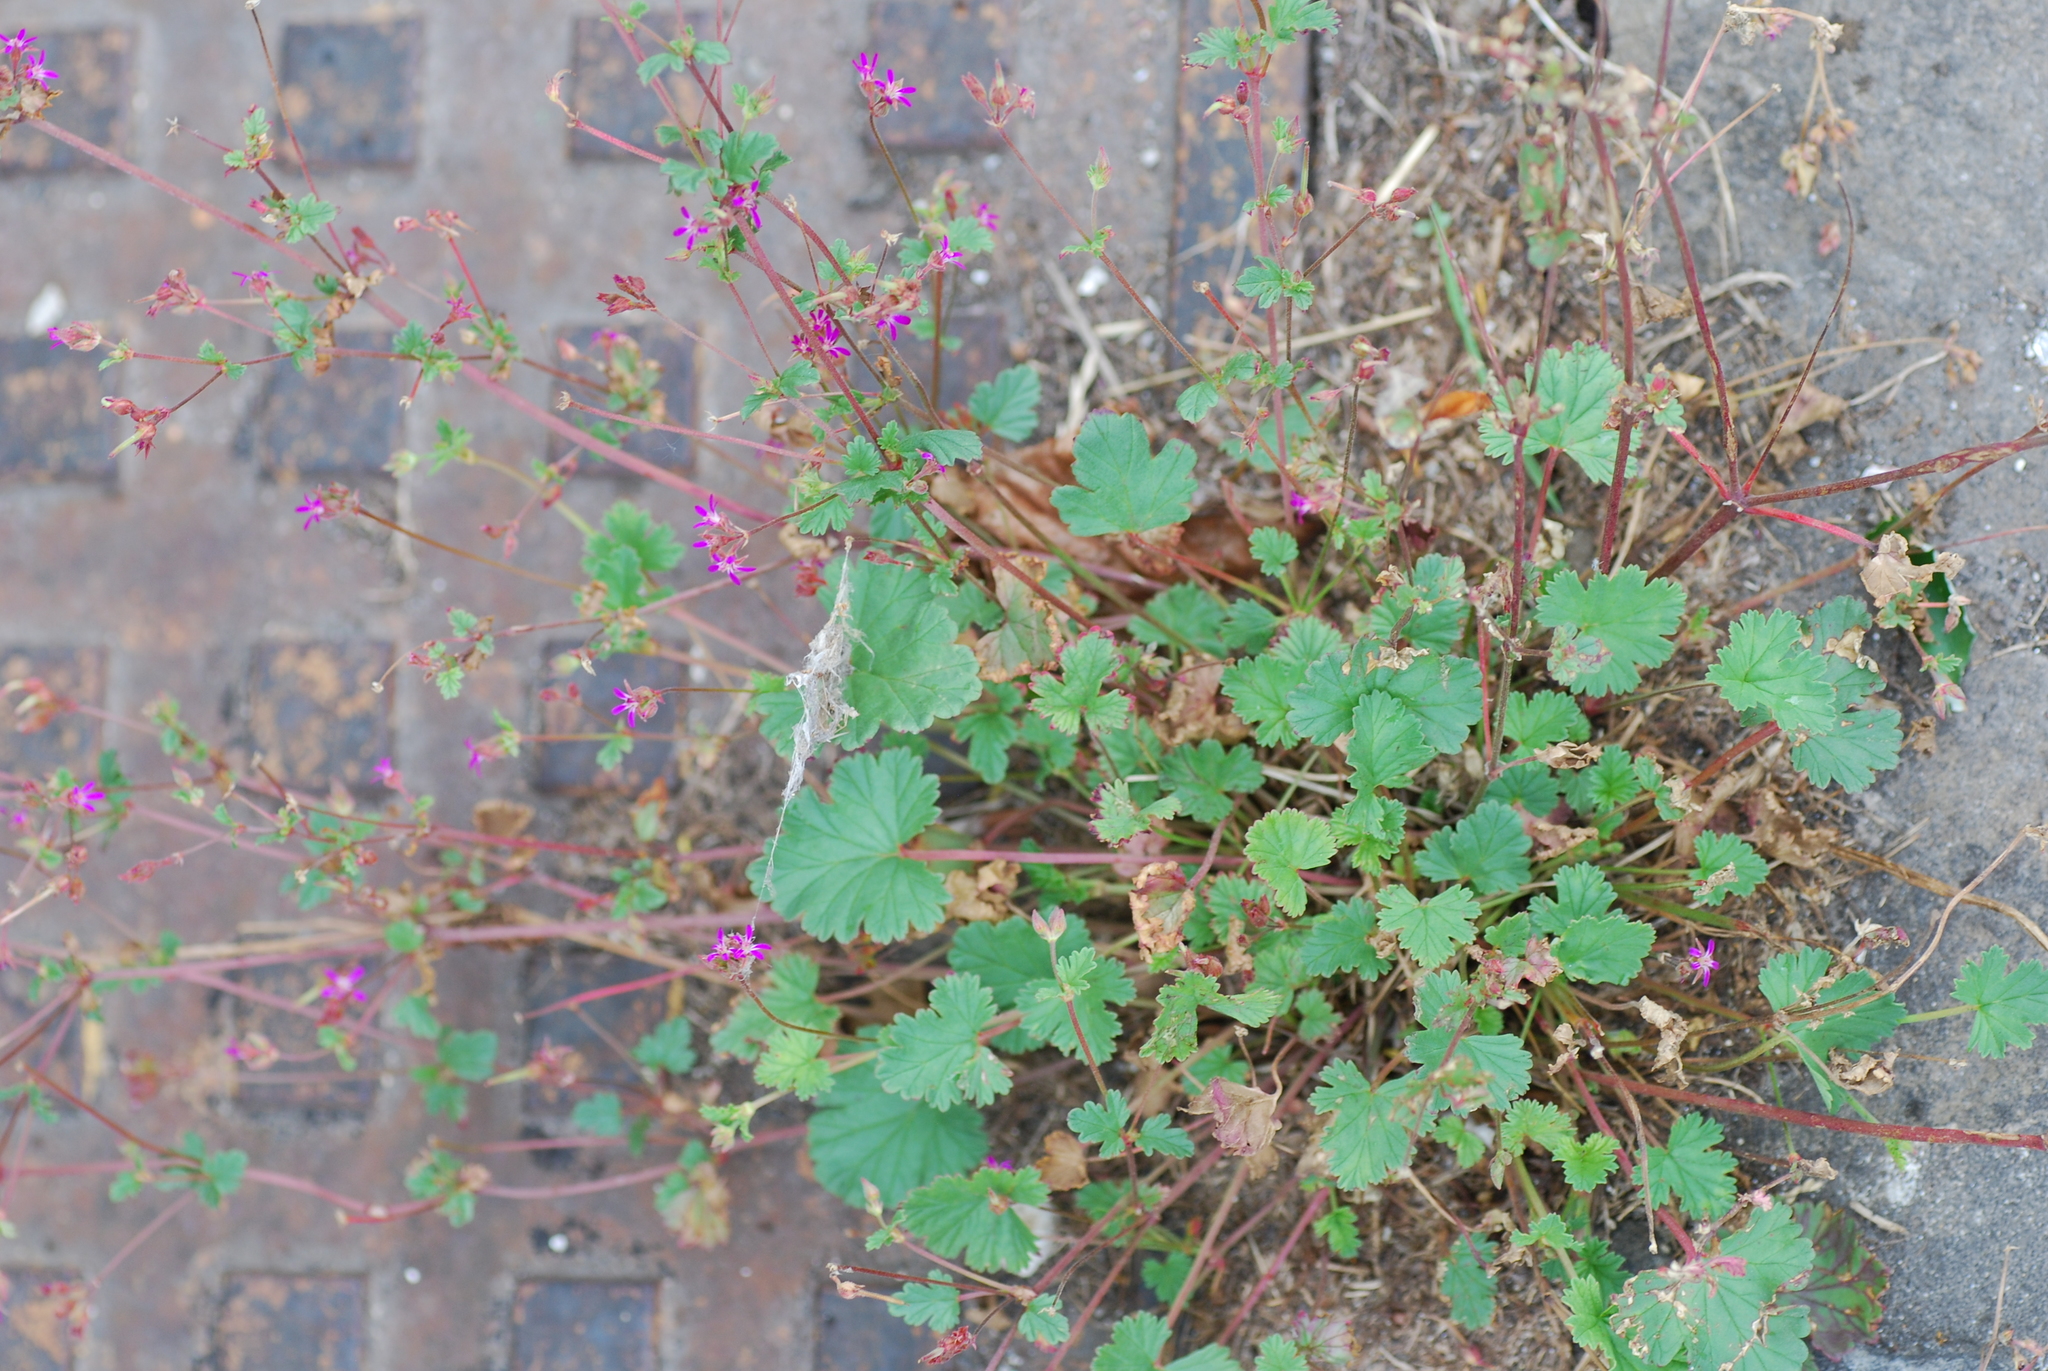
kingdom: Plantae
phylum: Tracheophyta
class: Magnoliopsida
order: Geraniales
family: Geraniaceae
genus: Pelargonium
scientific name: Pelargonium grossularioides
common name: Gooseberry geranium
